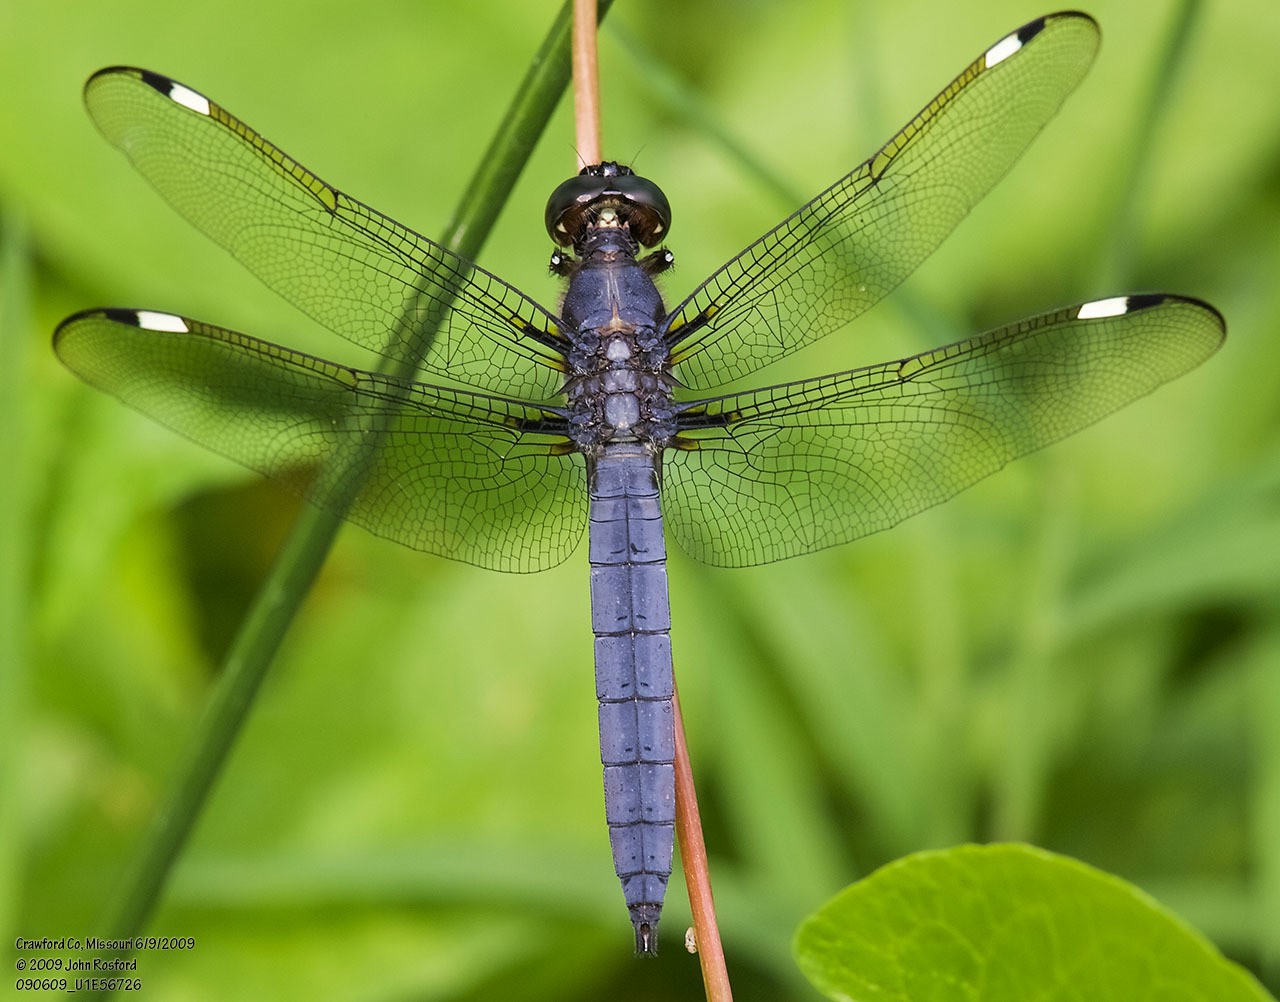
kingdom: Animalia
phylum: Arthropoda
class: Insecta
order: Odonata
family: Libellulidae
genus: Libellula
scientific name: Libellula cyanea
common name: Spangled skimmer
